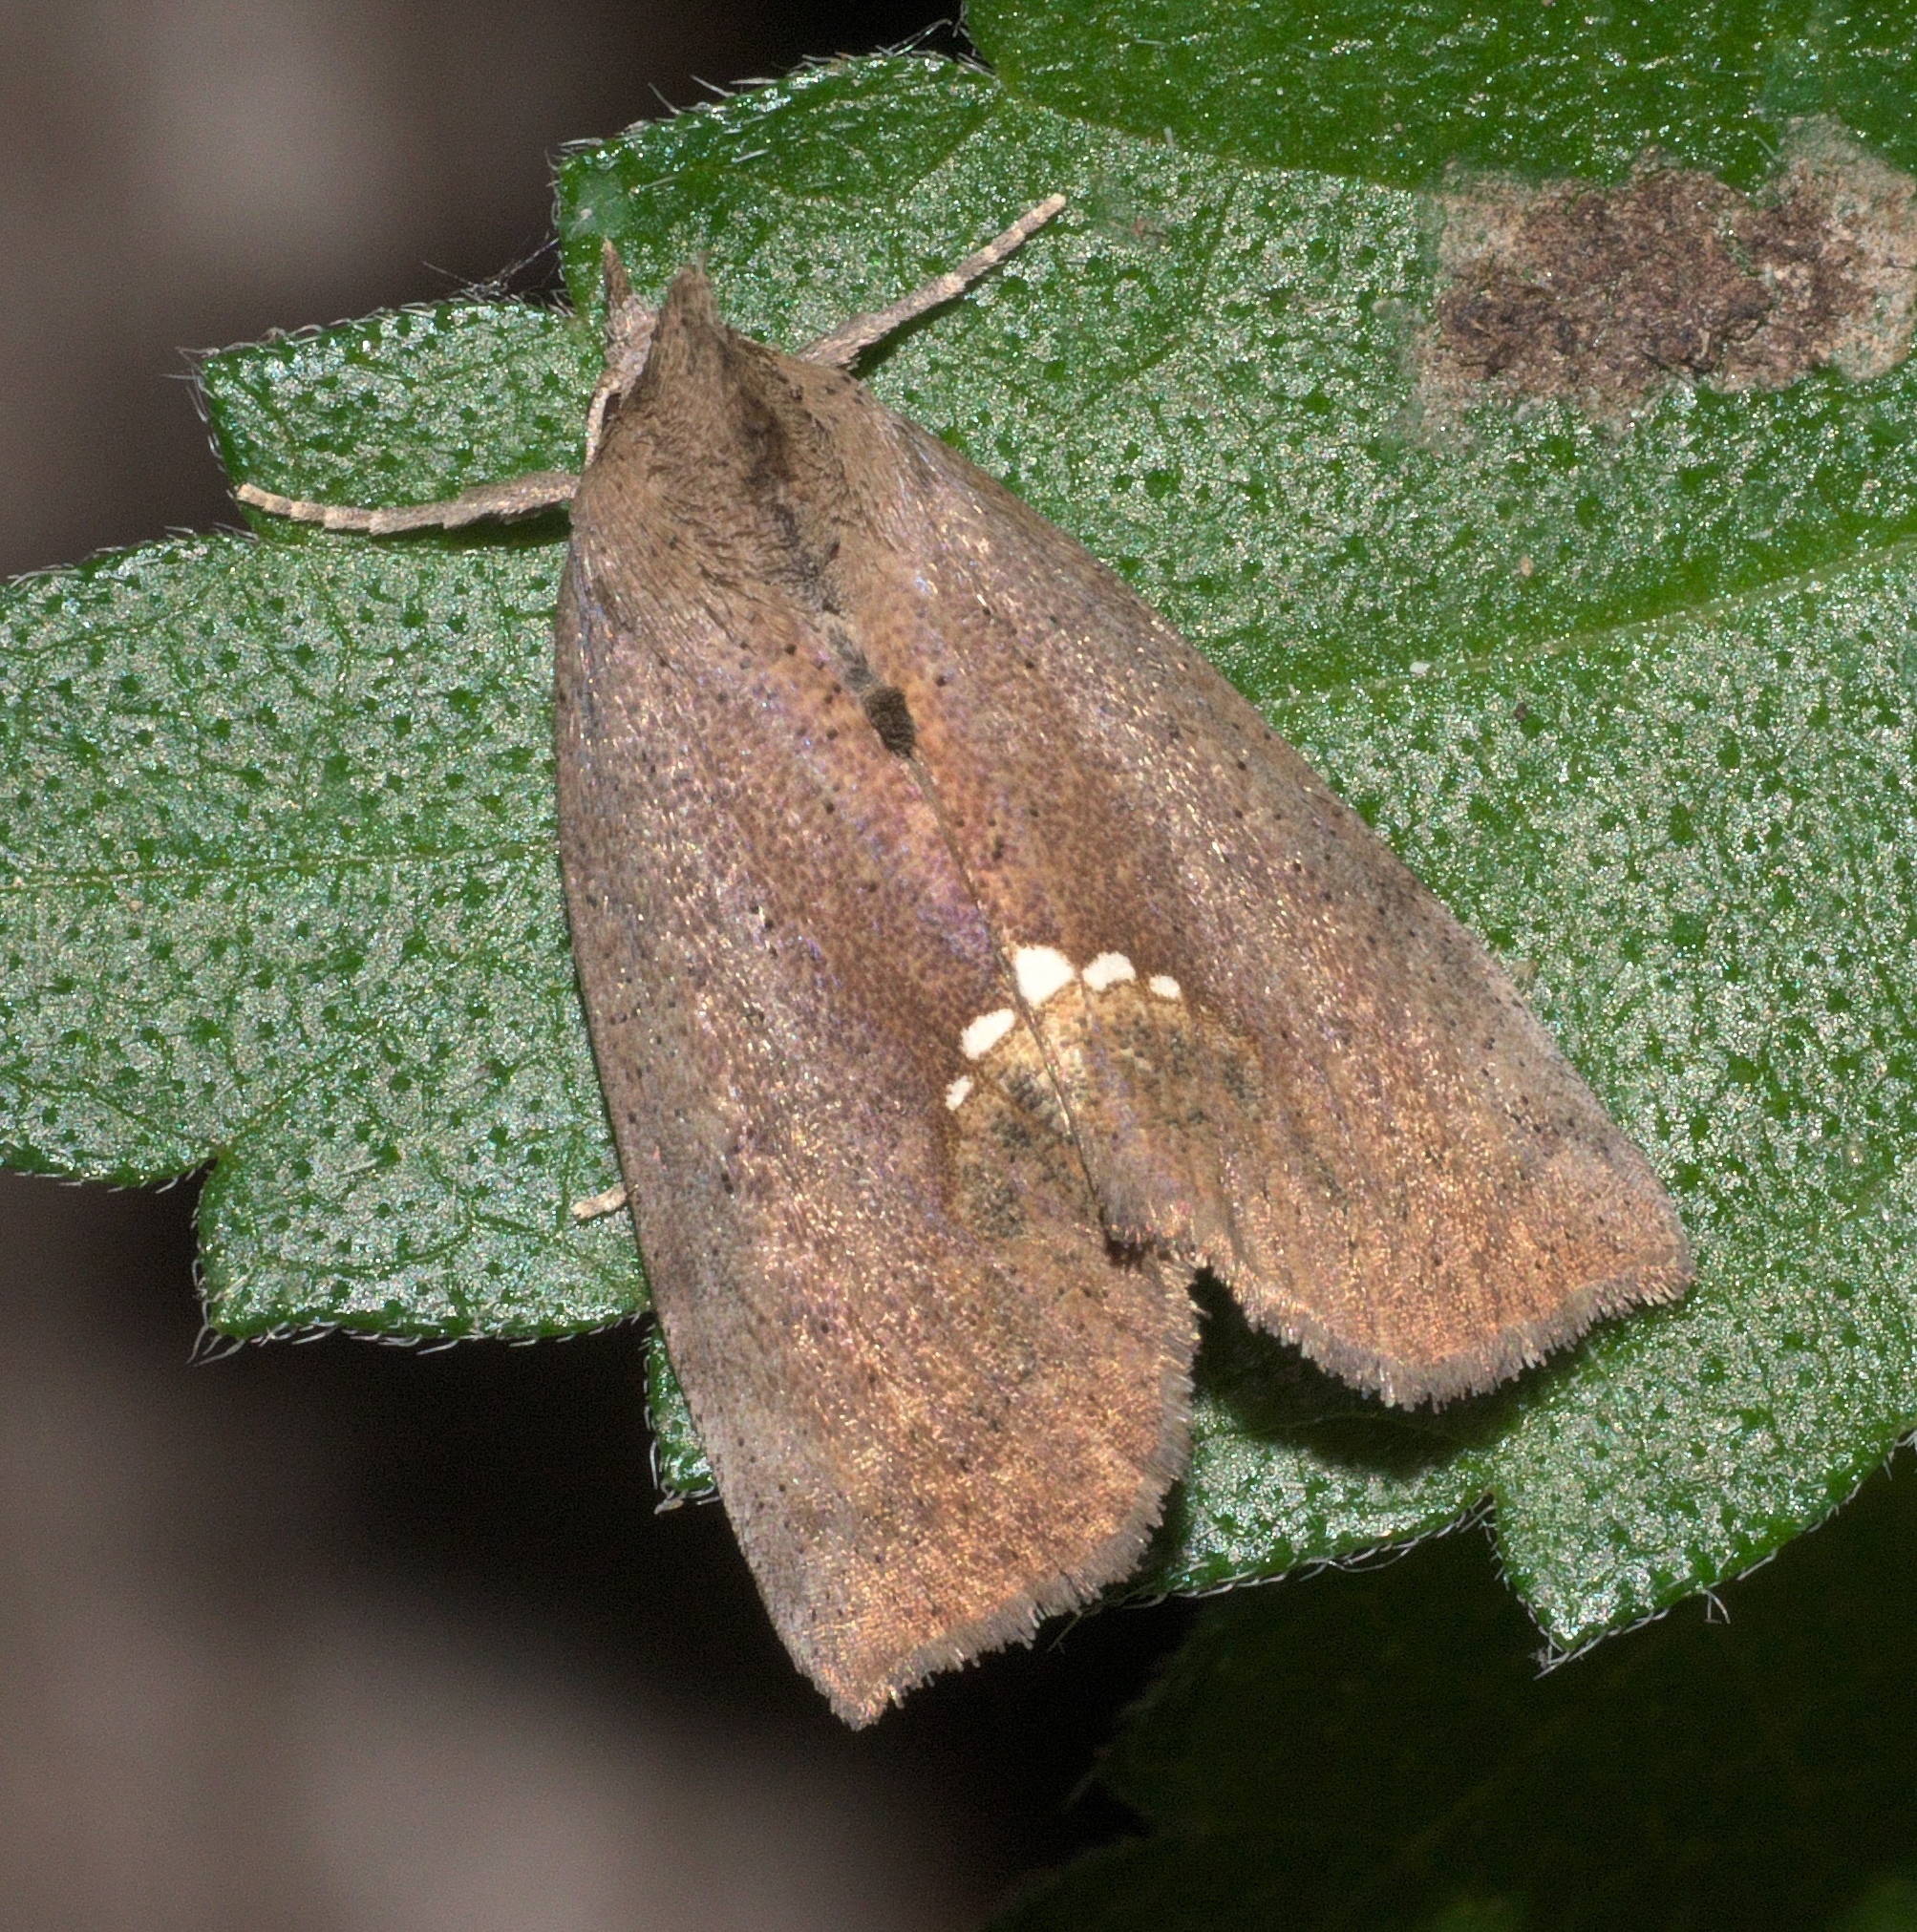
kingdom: Animalia
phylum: Arthropoda
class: Insecta
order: Lepidoptera
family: Erebidae
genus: Hypsoropha
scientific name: Hypsoropha hormos
